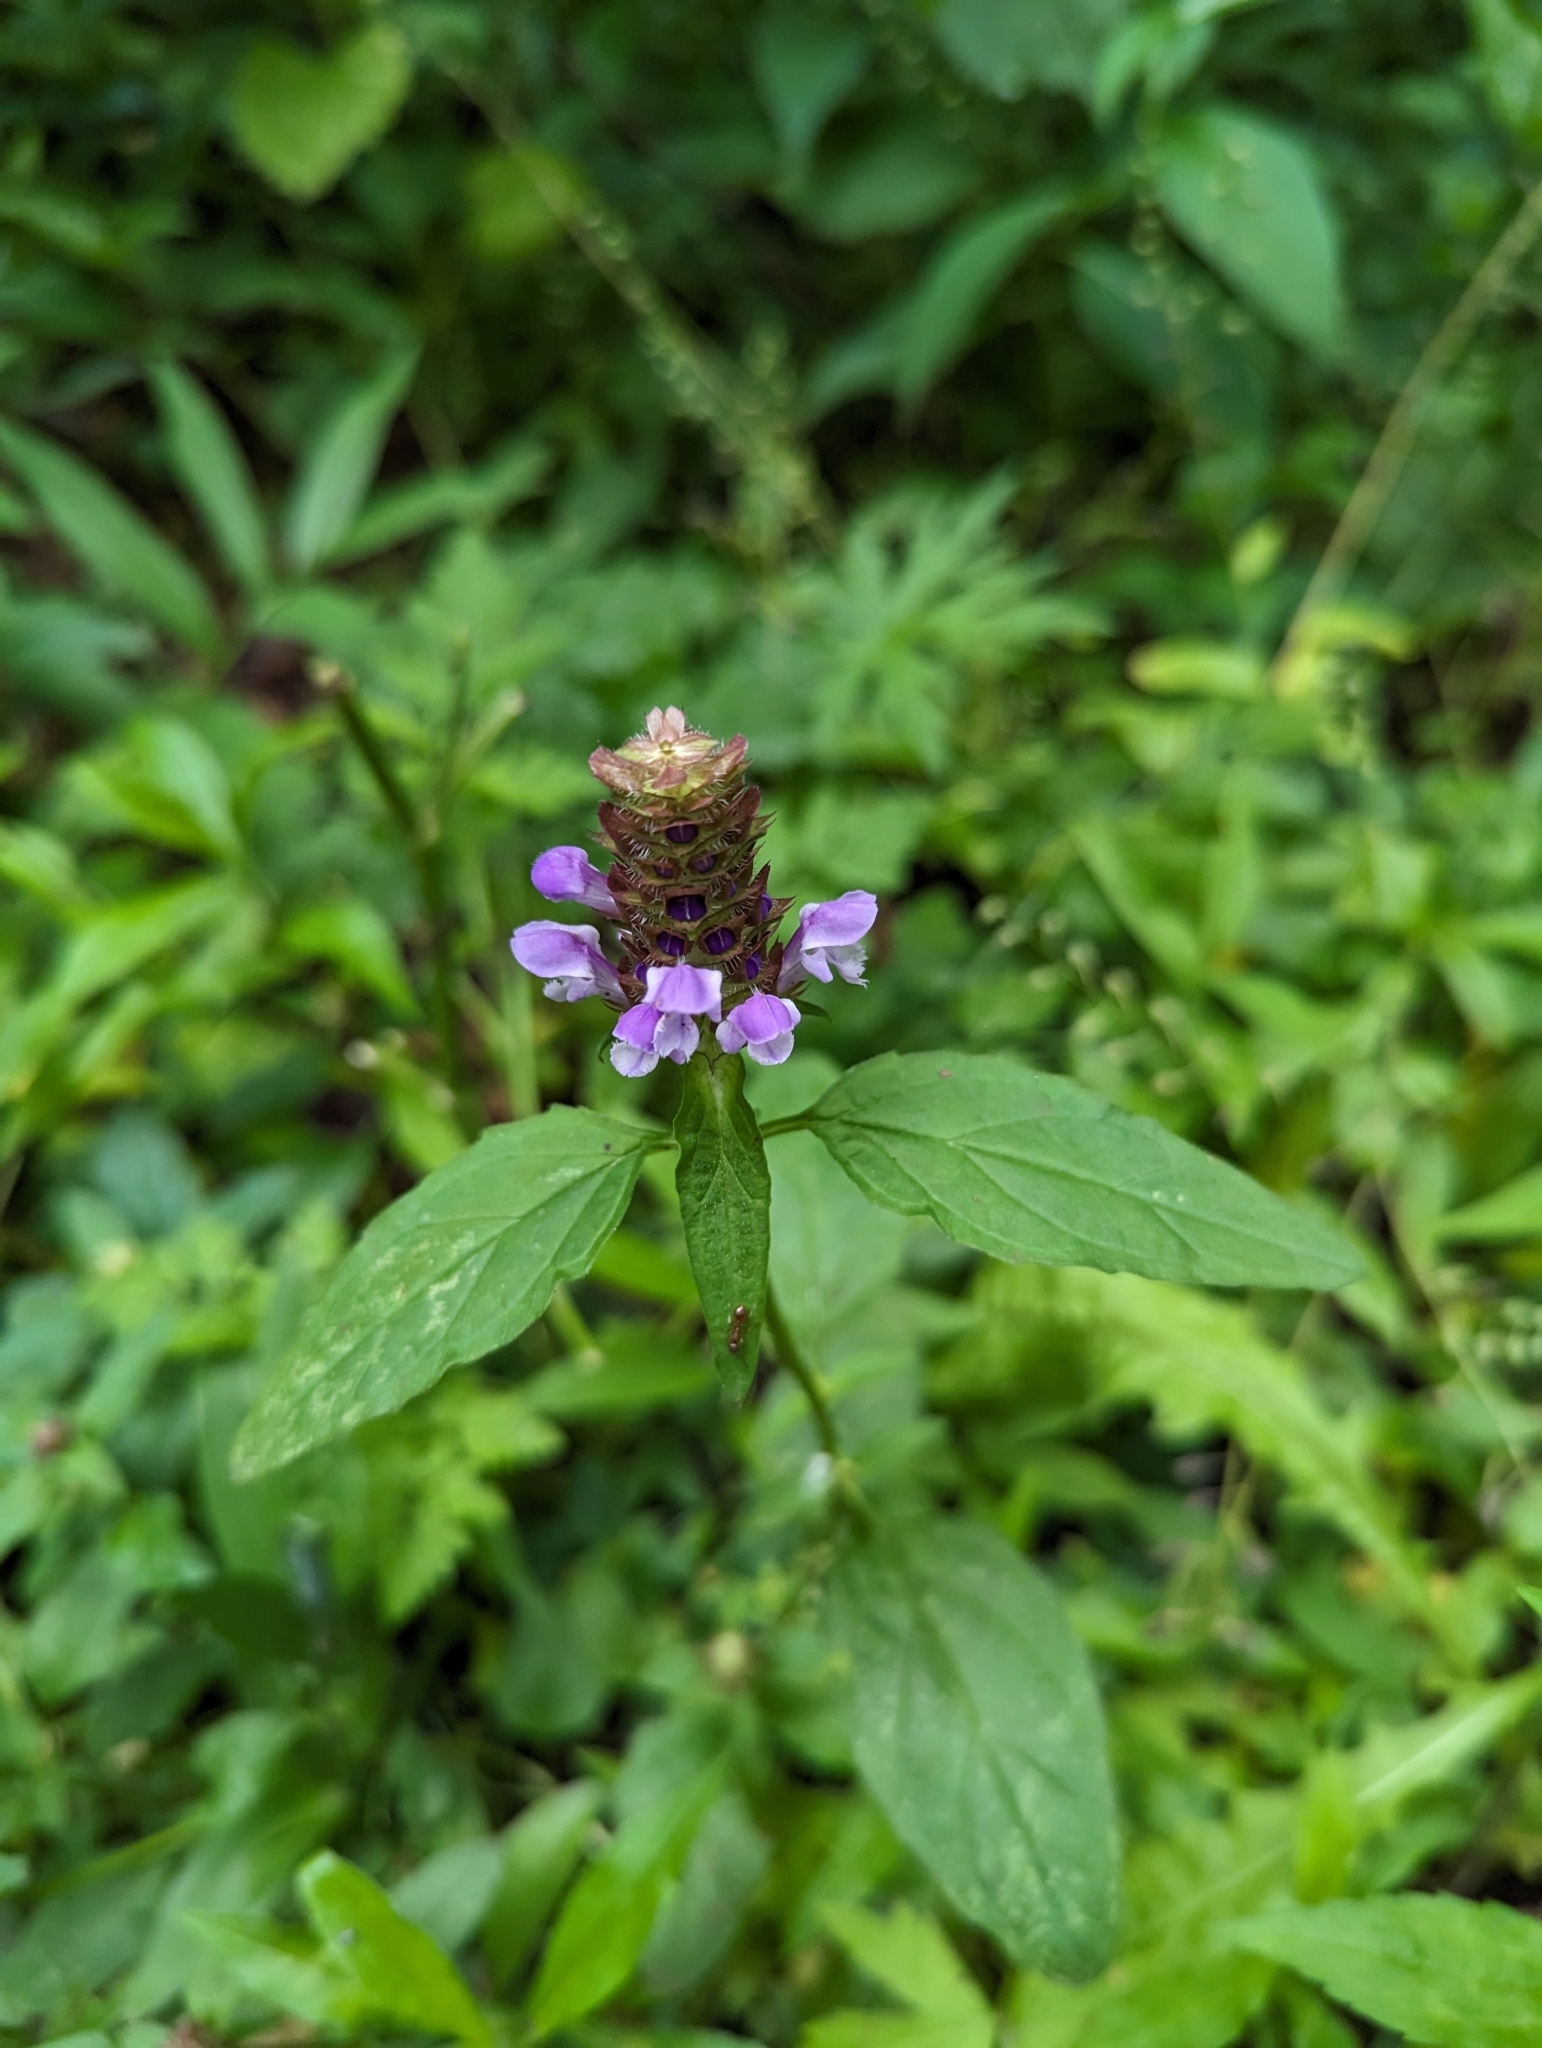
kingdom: Plantae
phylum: Tracheophyta
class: Magnoliopsida
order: Lamiales
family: Lamiaceae
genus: Prunella
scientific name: Prunella vulgaris
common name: Heal-all
